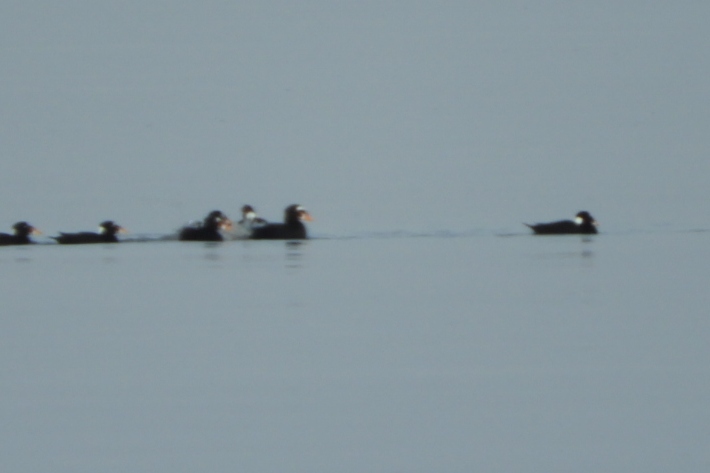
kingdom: Animalia
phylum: Chordata
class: Aves
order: Anseriformes
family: Anatidae
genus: Melanitta
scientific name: Melanitta perspicillata
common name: Surf scoter
